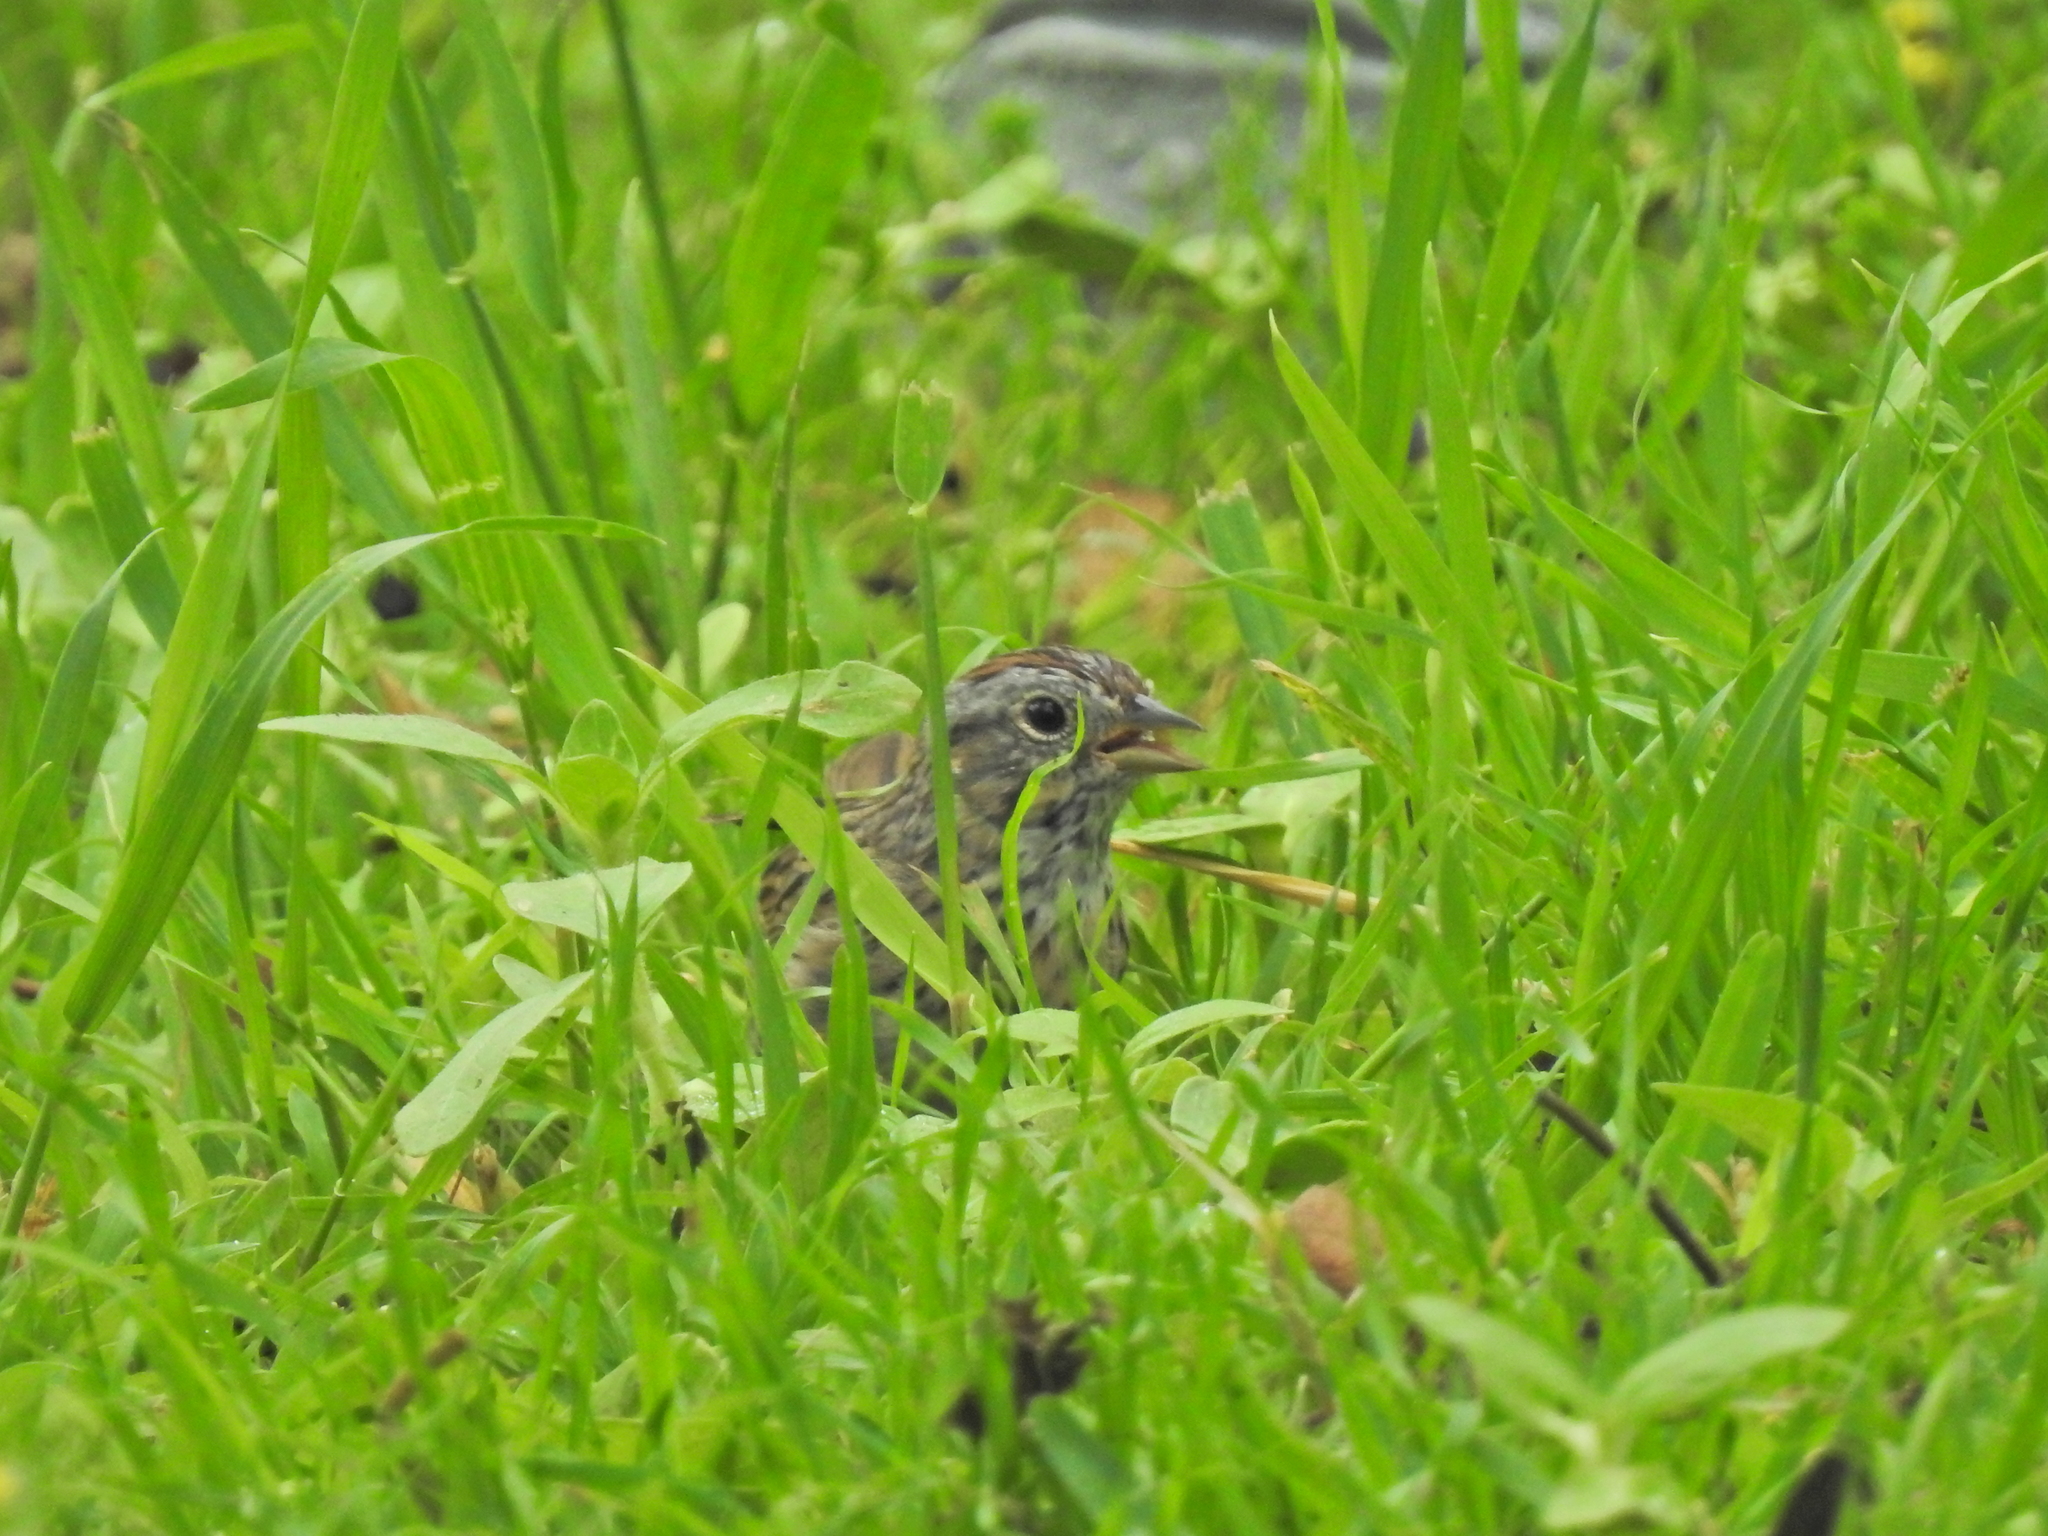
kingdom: Animalia
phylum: Chordata
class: Aves
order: Passeriformes
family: Passerellidae
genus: Melospiza
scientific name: Melospiza lincolnii
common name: Lincoln's sparrow
